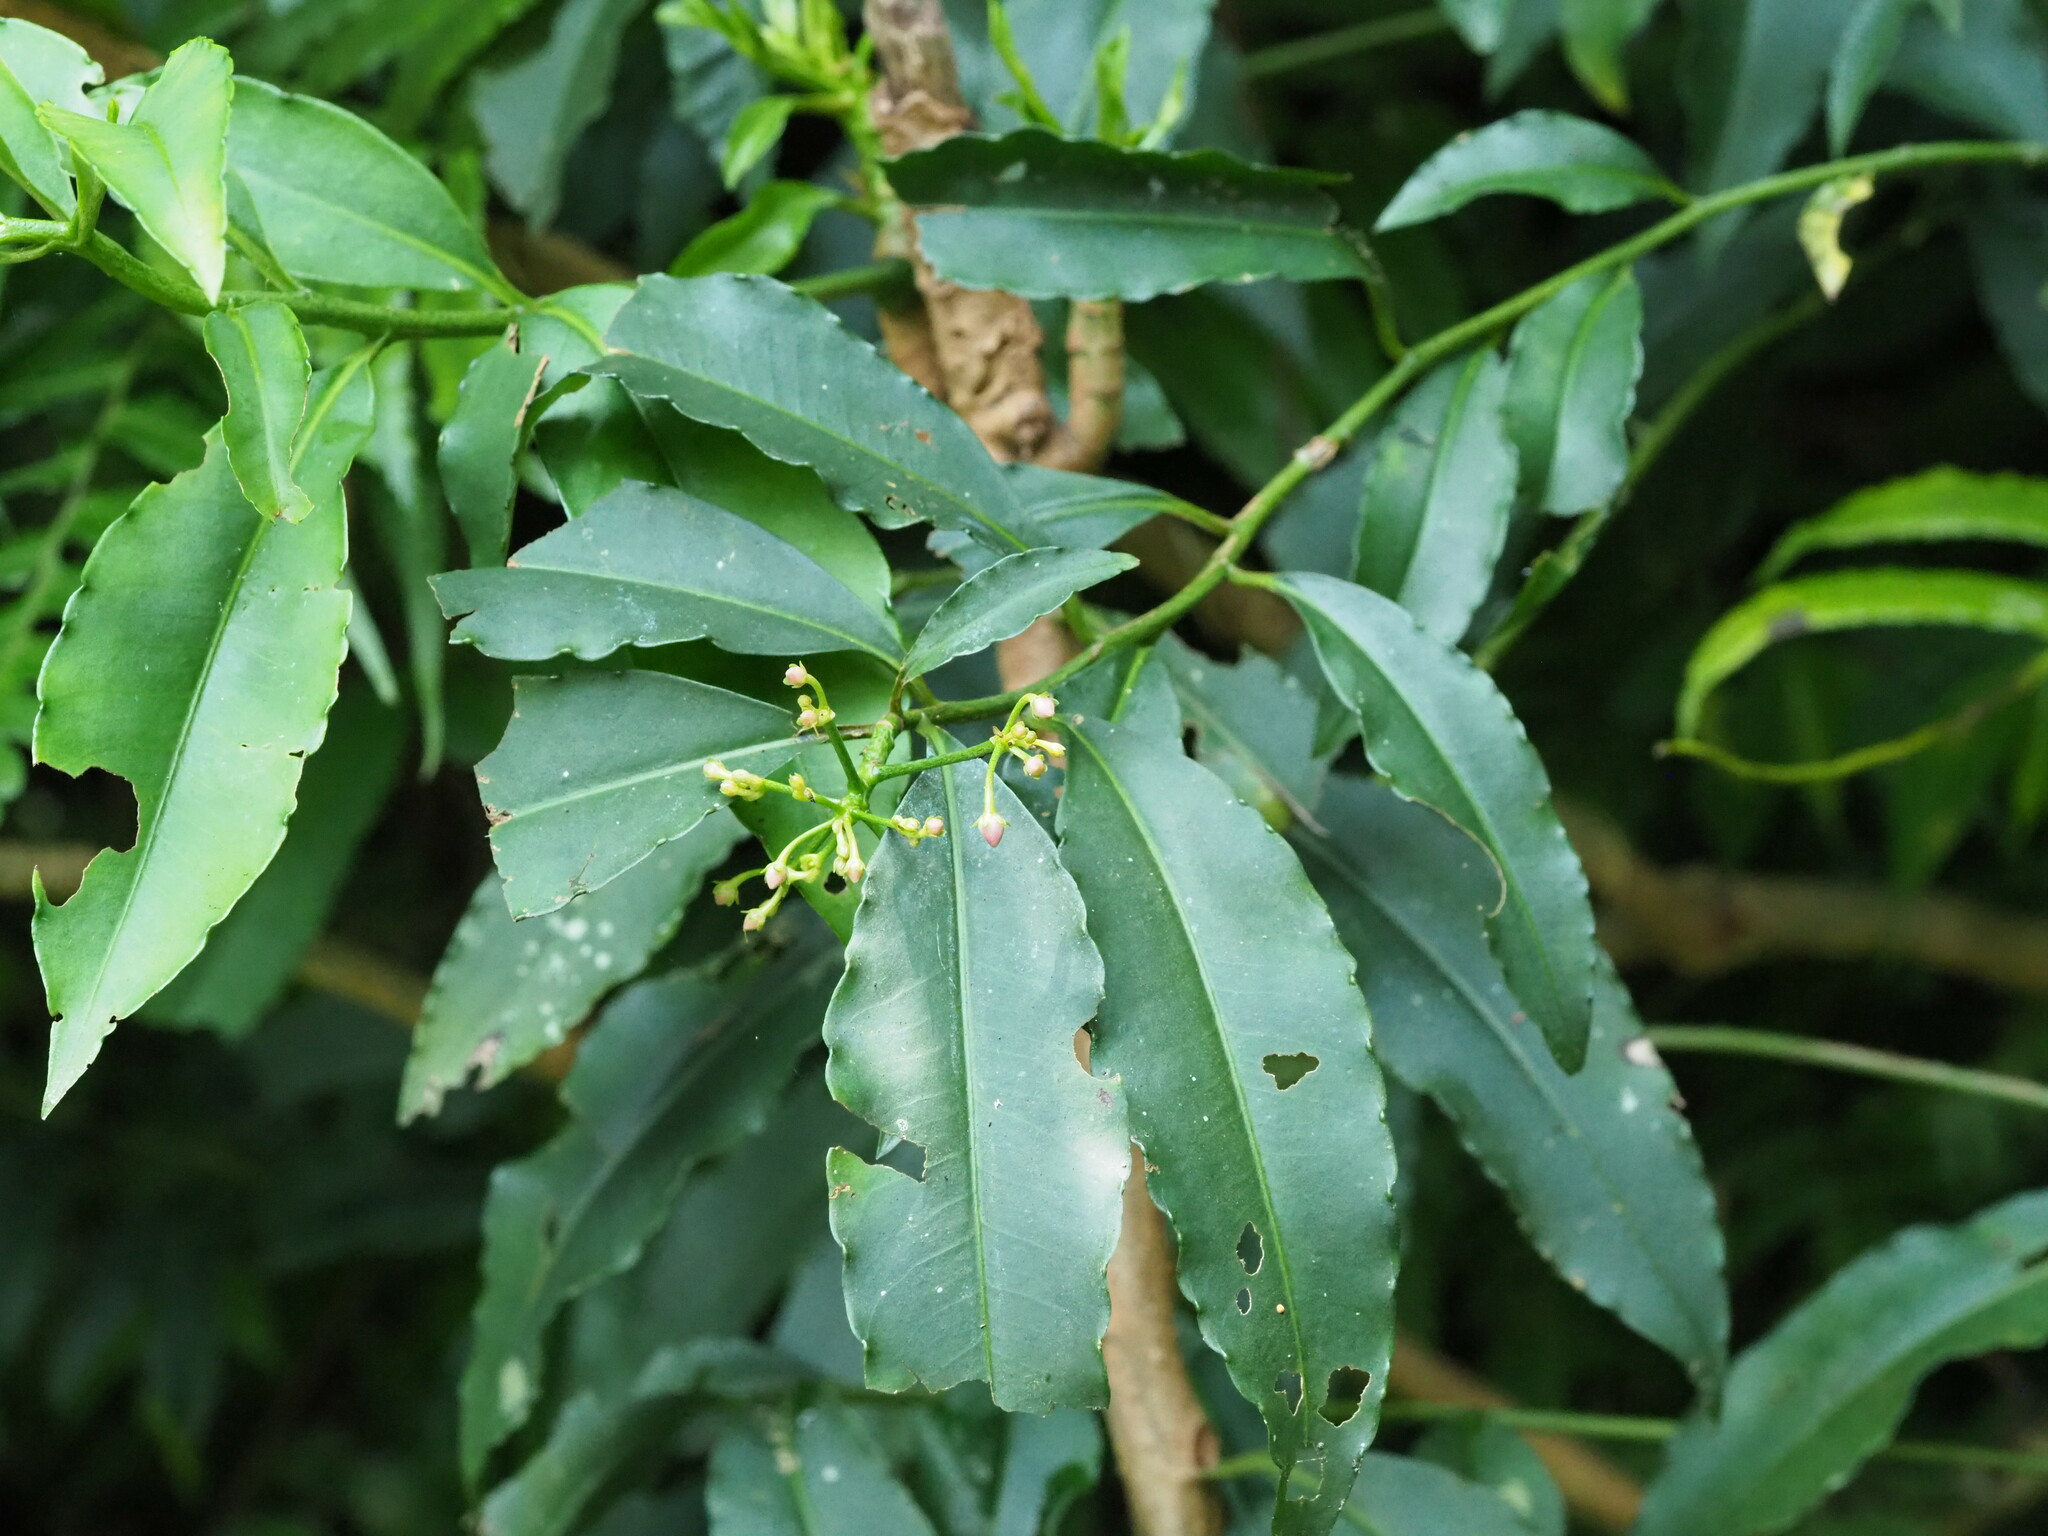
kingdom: Plantae
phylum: Tracheophyta
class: Magnoliopsida
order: Ericales
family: Primulaceae
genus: Ardisia
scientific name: Ardisia polysticta
